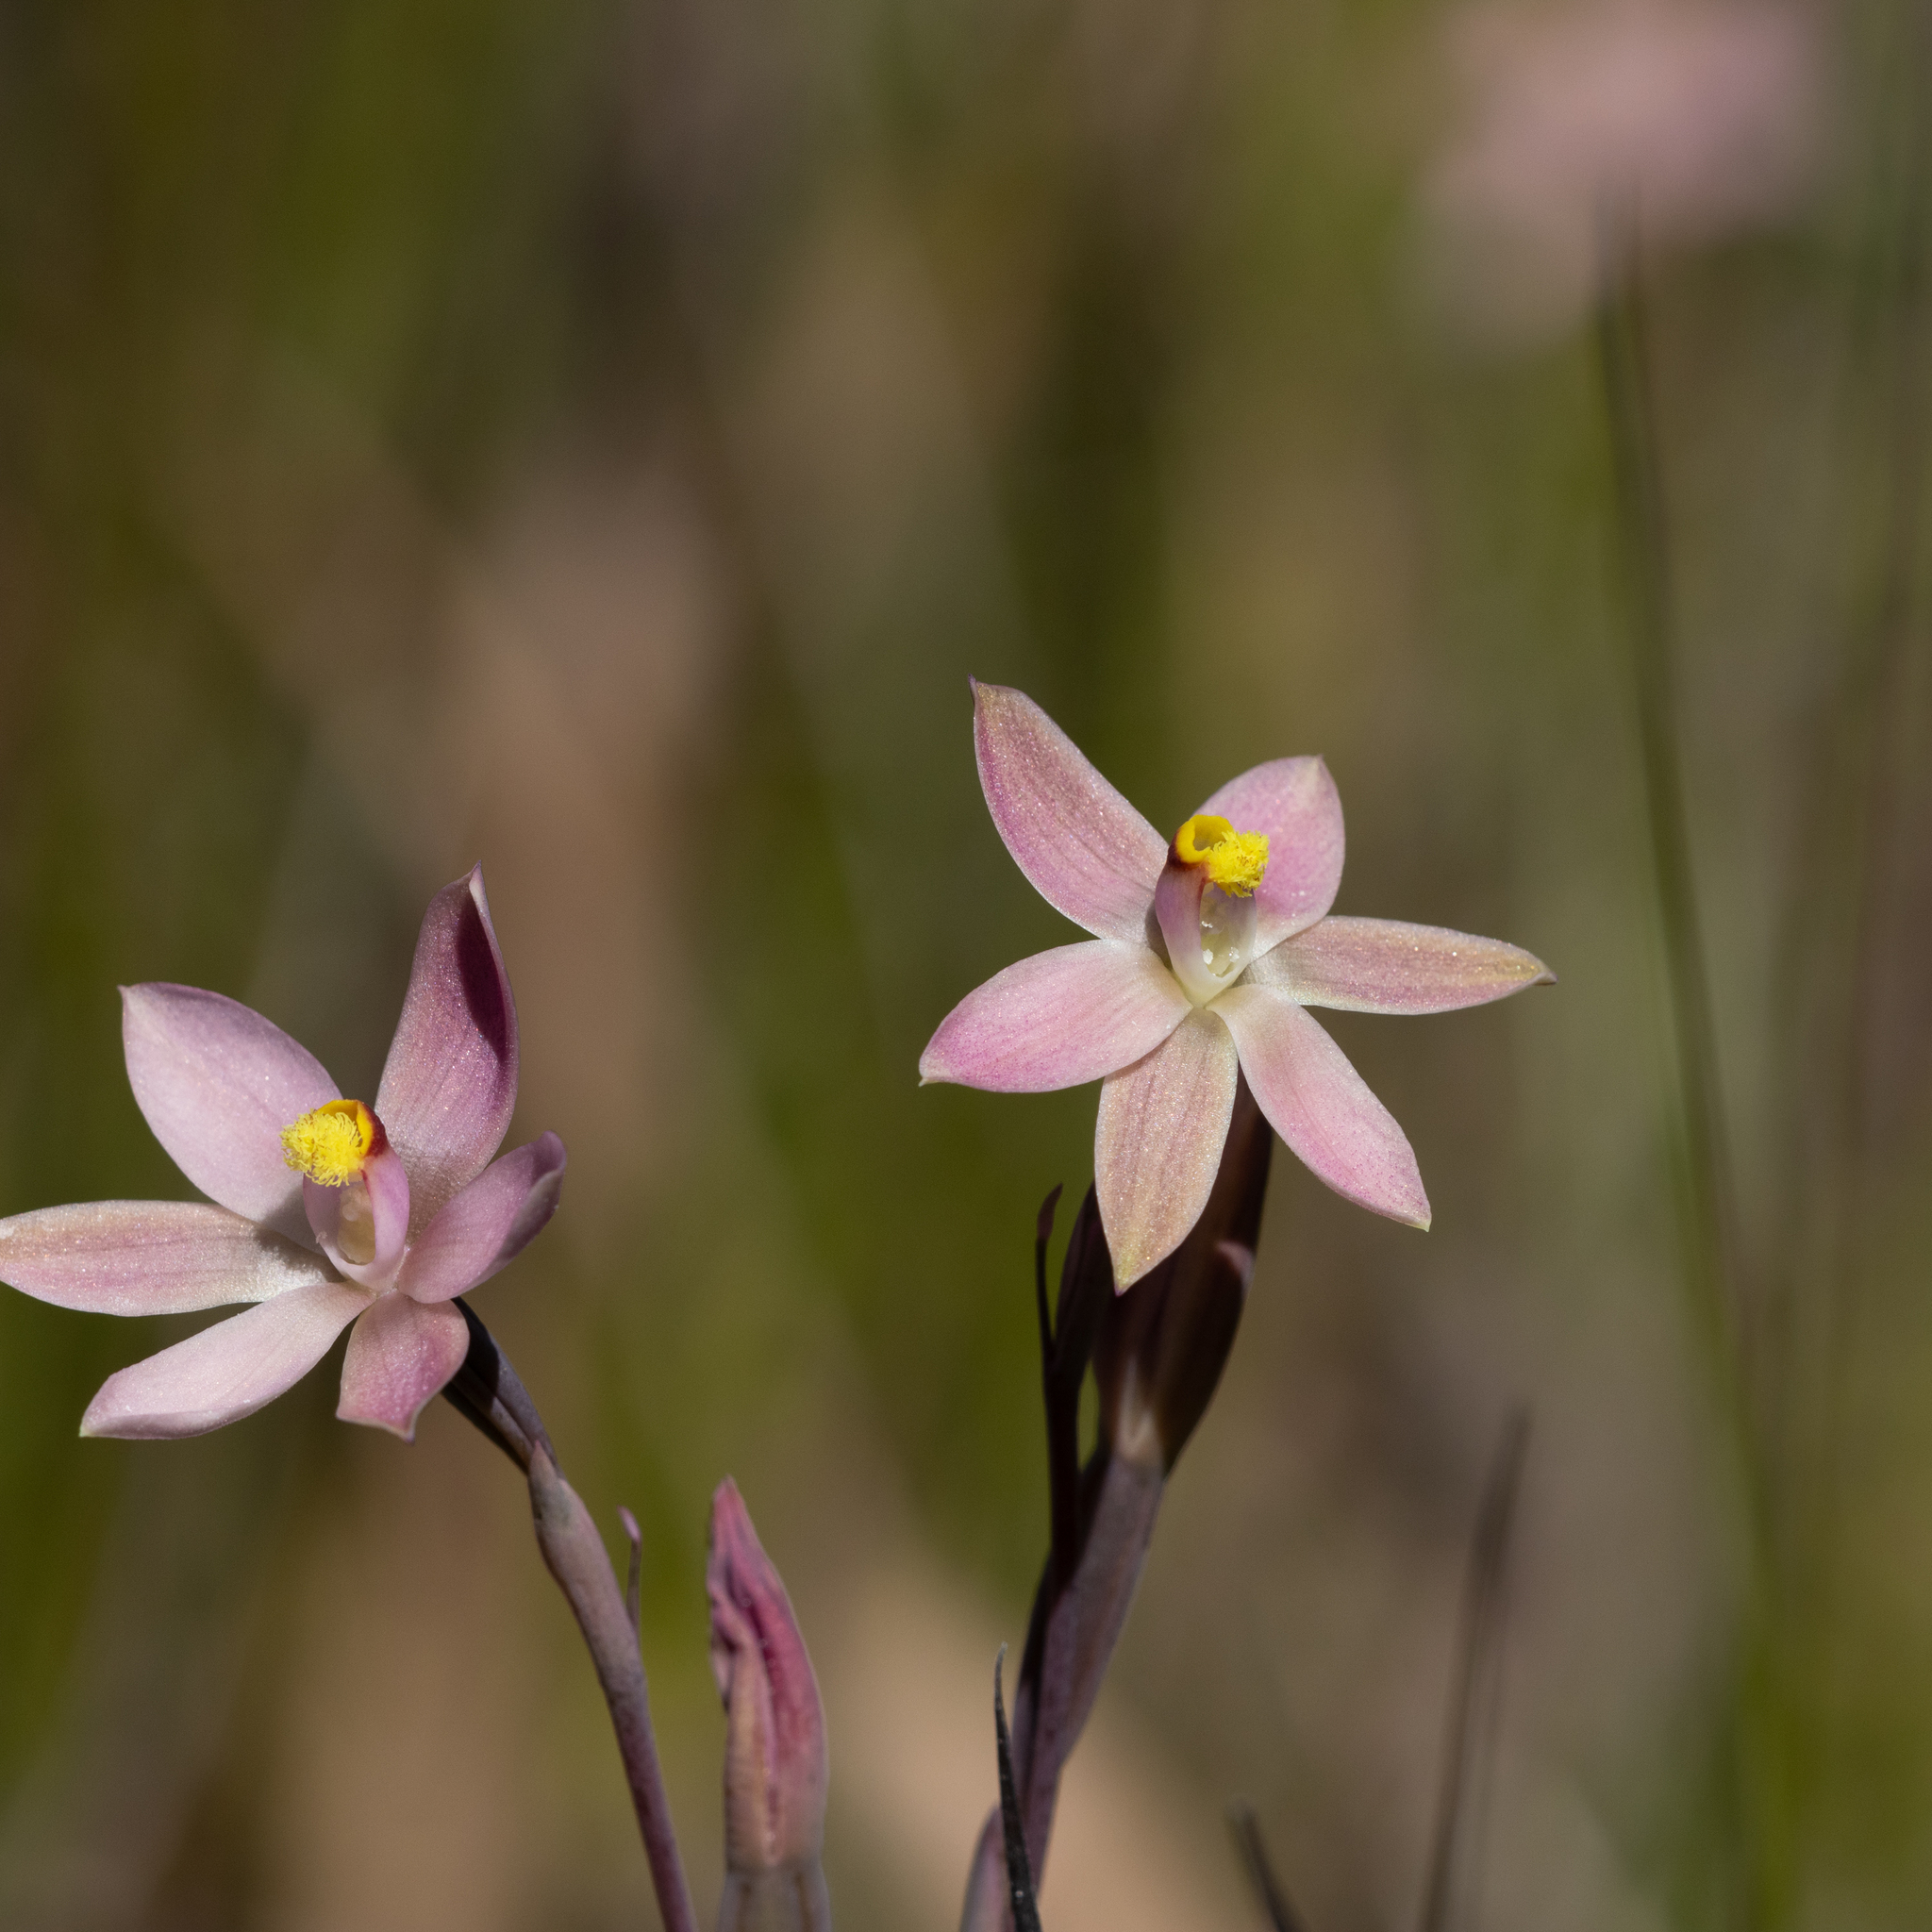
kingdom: Plantae
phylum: Tracheophyta
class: Liliopsida
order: Asparagales
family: Orchidaceae
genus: Thelymitra
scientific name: Thelymitra luteocilium
